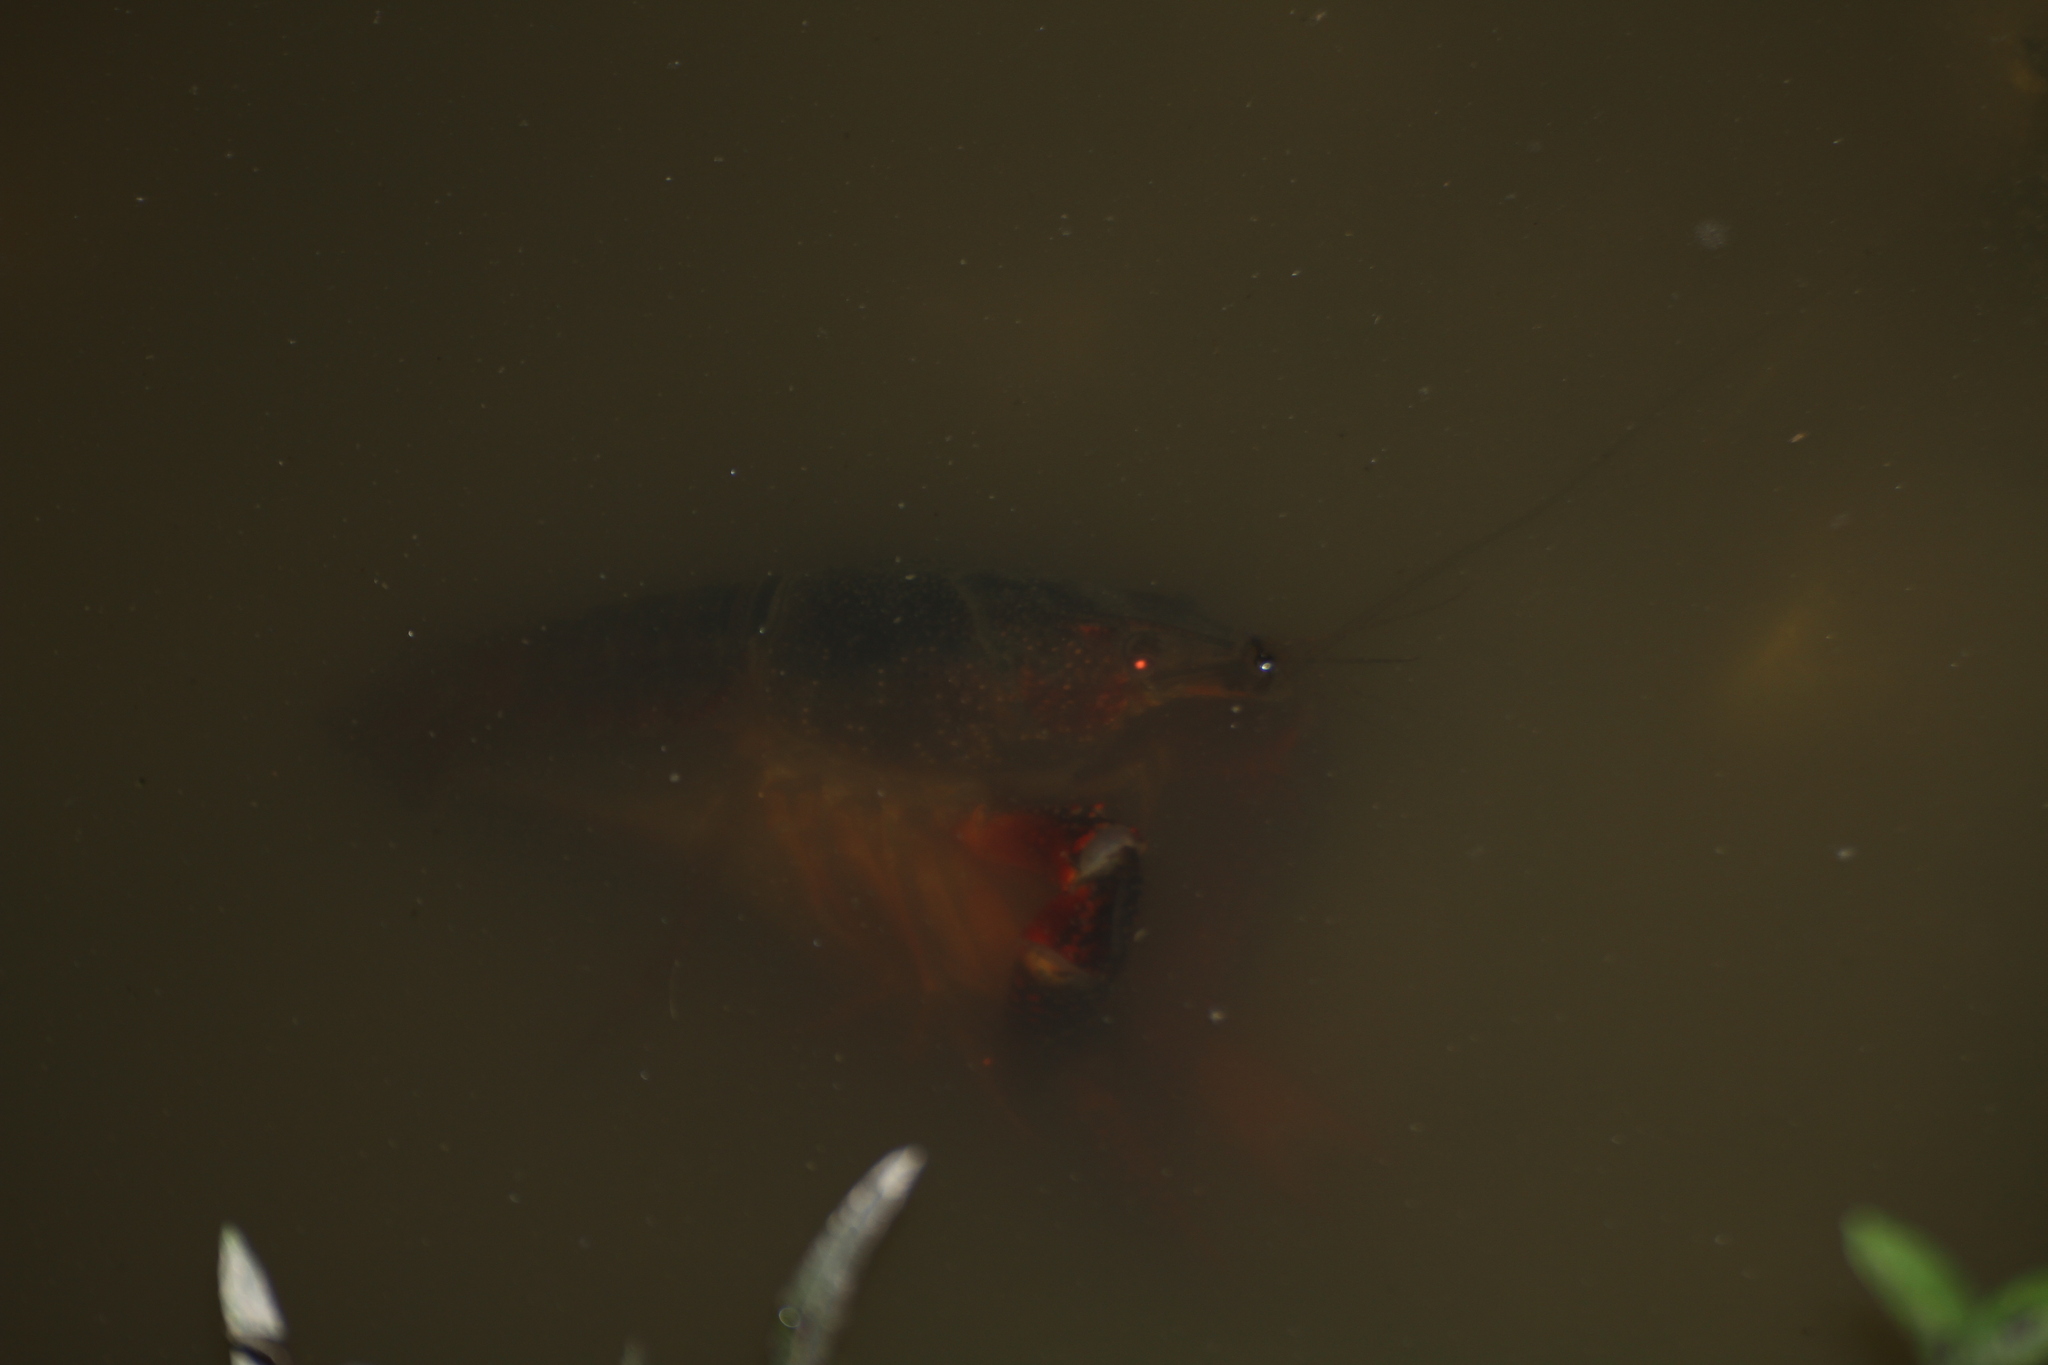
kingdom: Animalia
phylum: Arthropoda
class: Malacostraca
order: Decapoda
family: Cambaridae
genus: Procambarus
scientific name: Procambarus clarkii
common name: Red swamp crayfish
